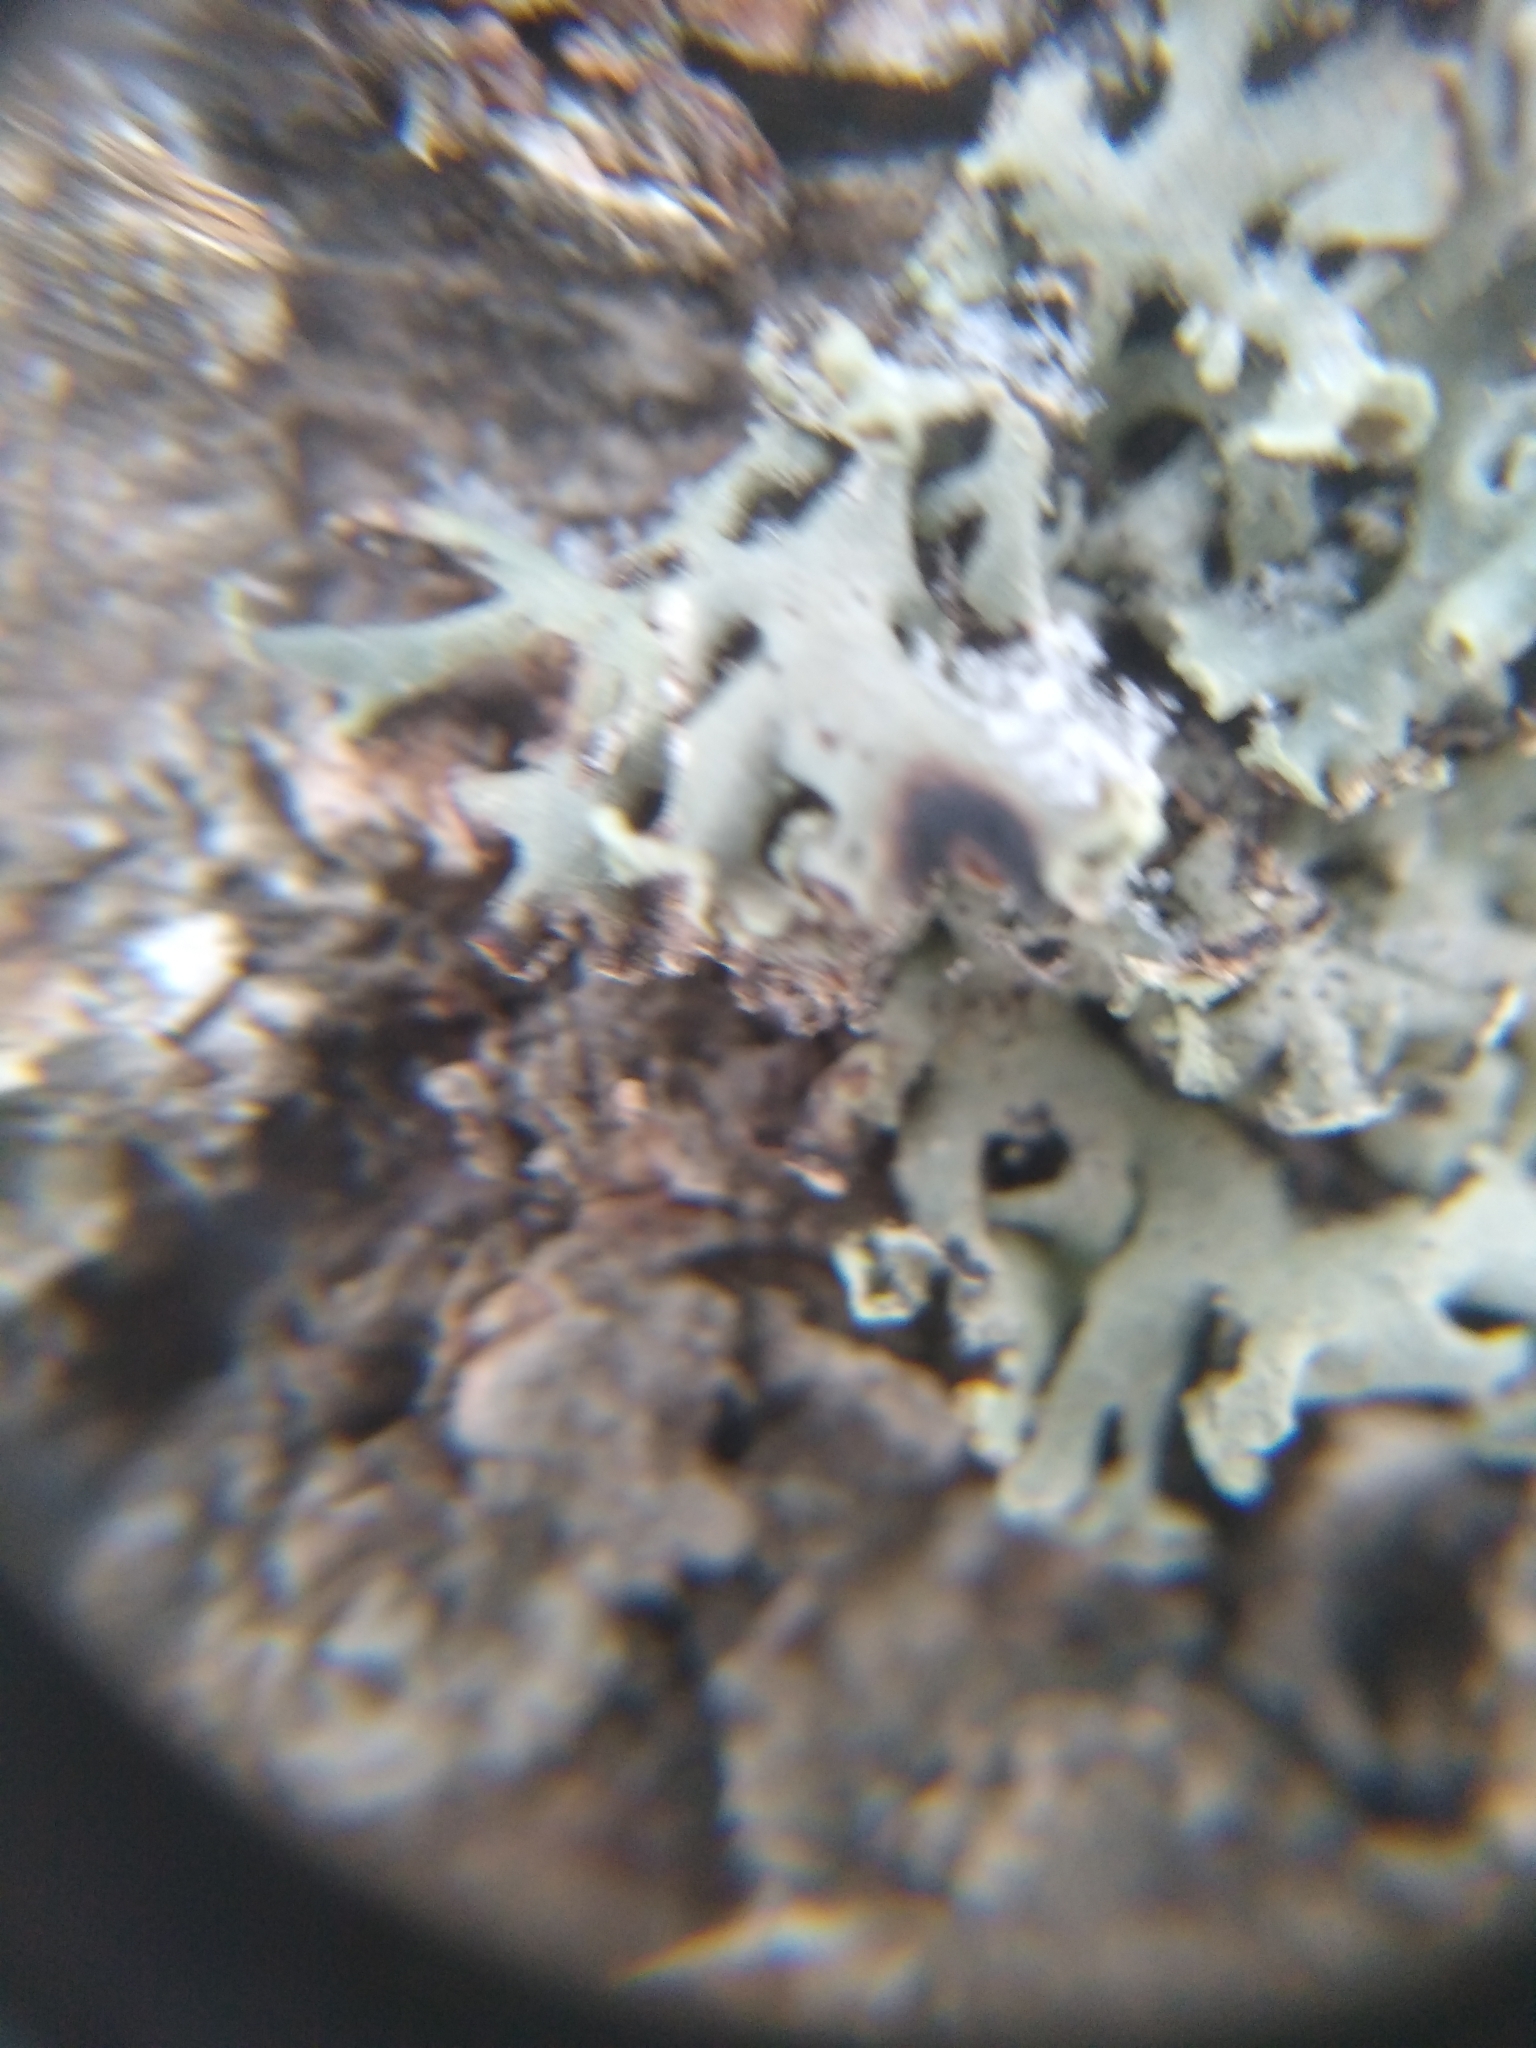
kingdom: Fungi
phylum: Ascomycota
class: Lecanoromycetes
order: Lecanorales
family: Parmeliaceae
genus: Hypogymnia
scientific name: Hypogymnia physodes
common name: Dark crottle
